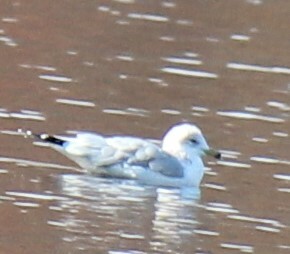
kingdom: Animalia
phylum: Chordata
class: Aves
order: Charadriiformes
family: Laridae
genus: Larus
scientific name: Larus delawarensis
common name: Ring-billed gull
